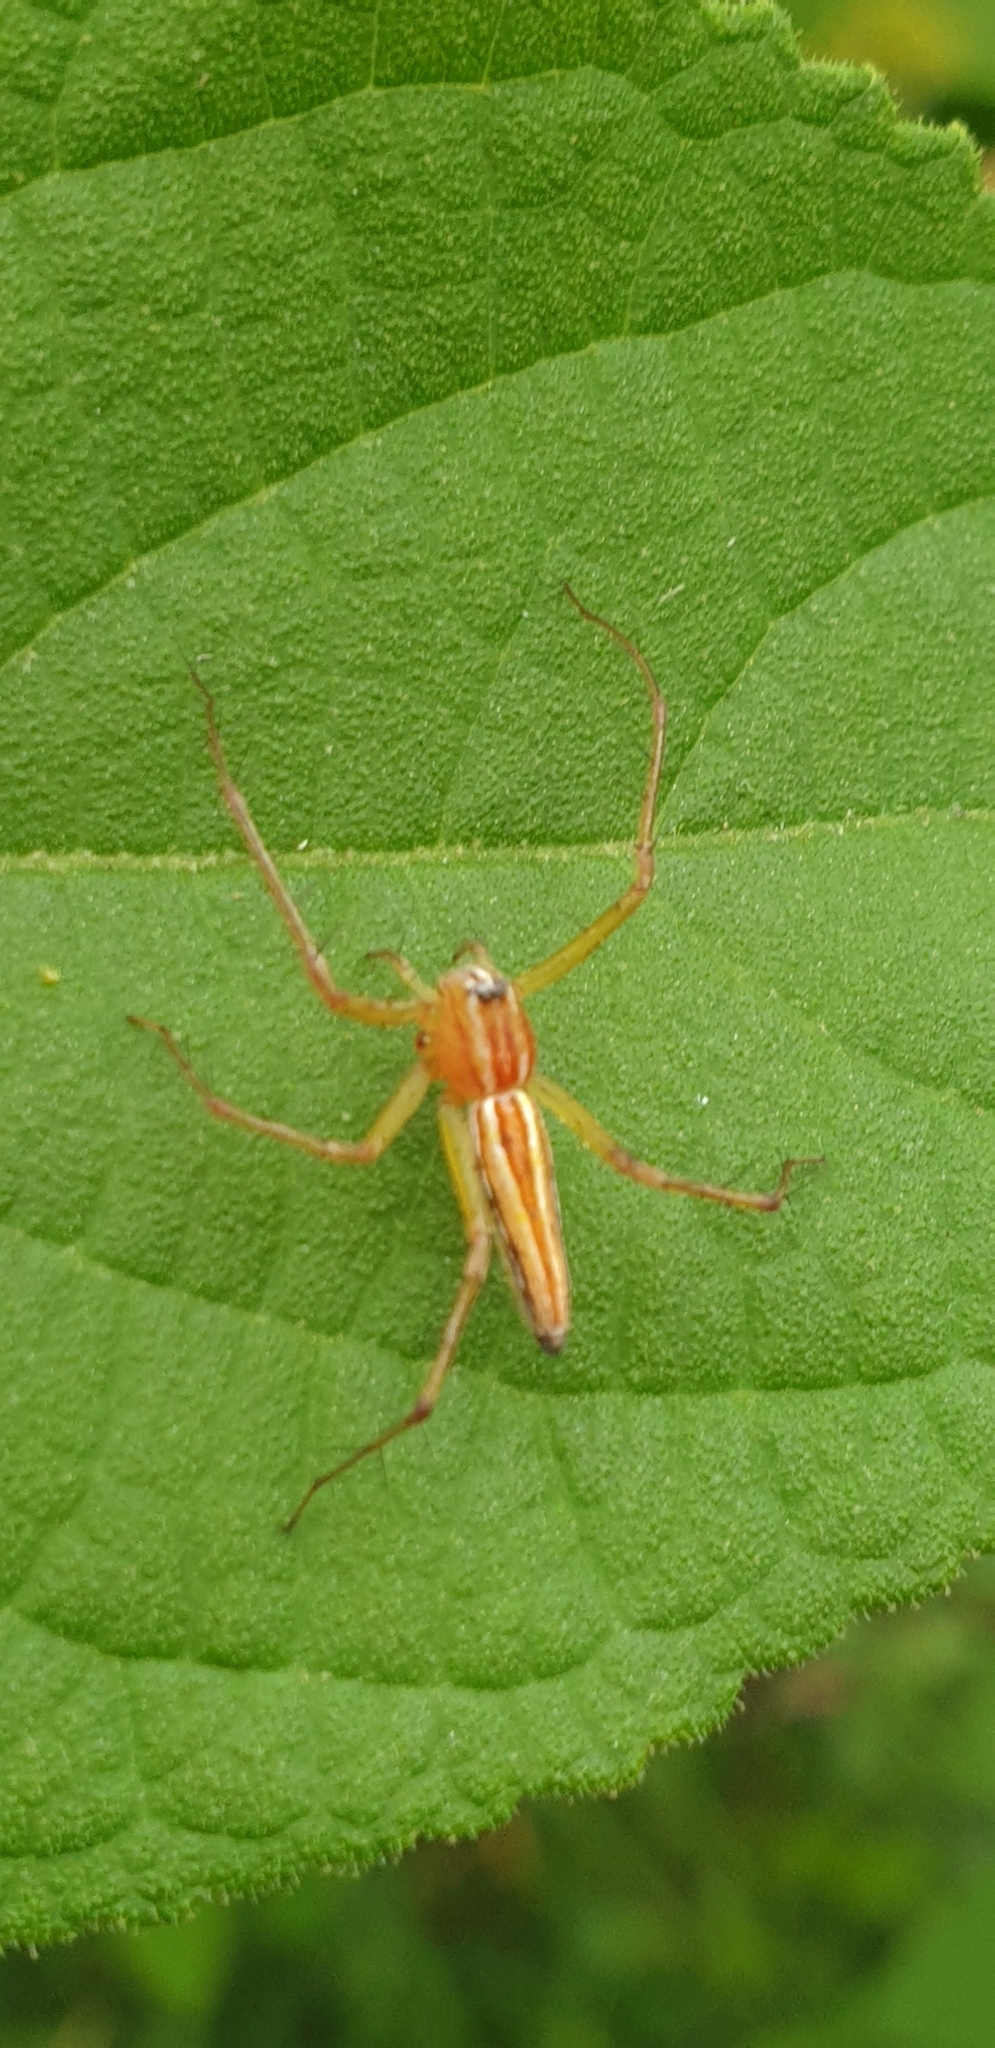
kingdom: Animalia
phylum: Arthropoda
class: Arachnida
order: Araneae
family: Oxyopidae
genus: Oxyopes
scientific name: Oxyopes macilentus
